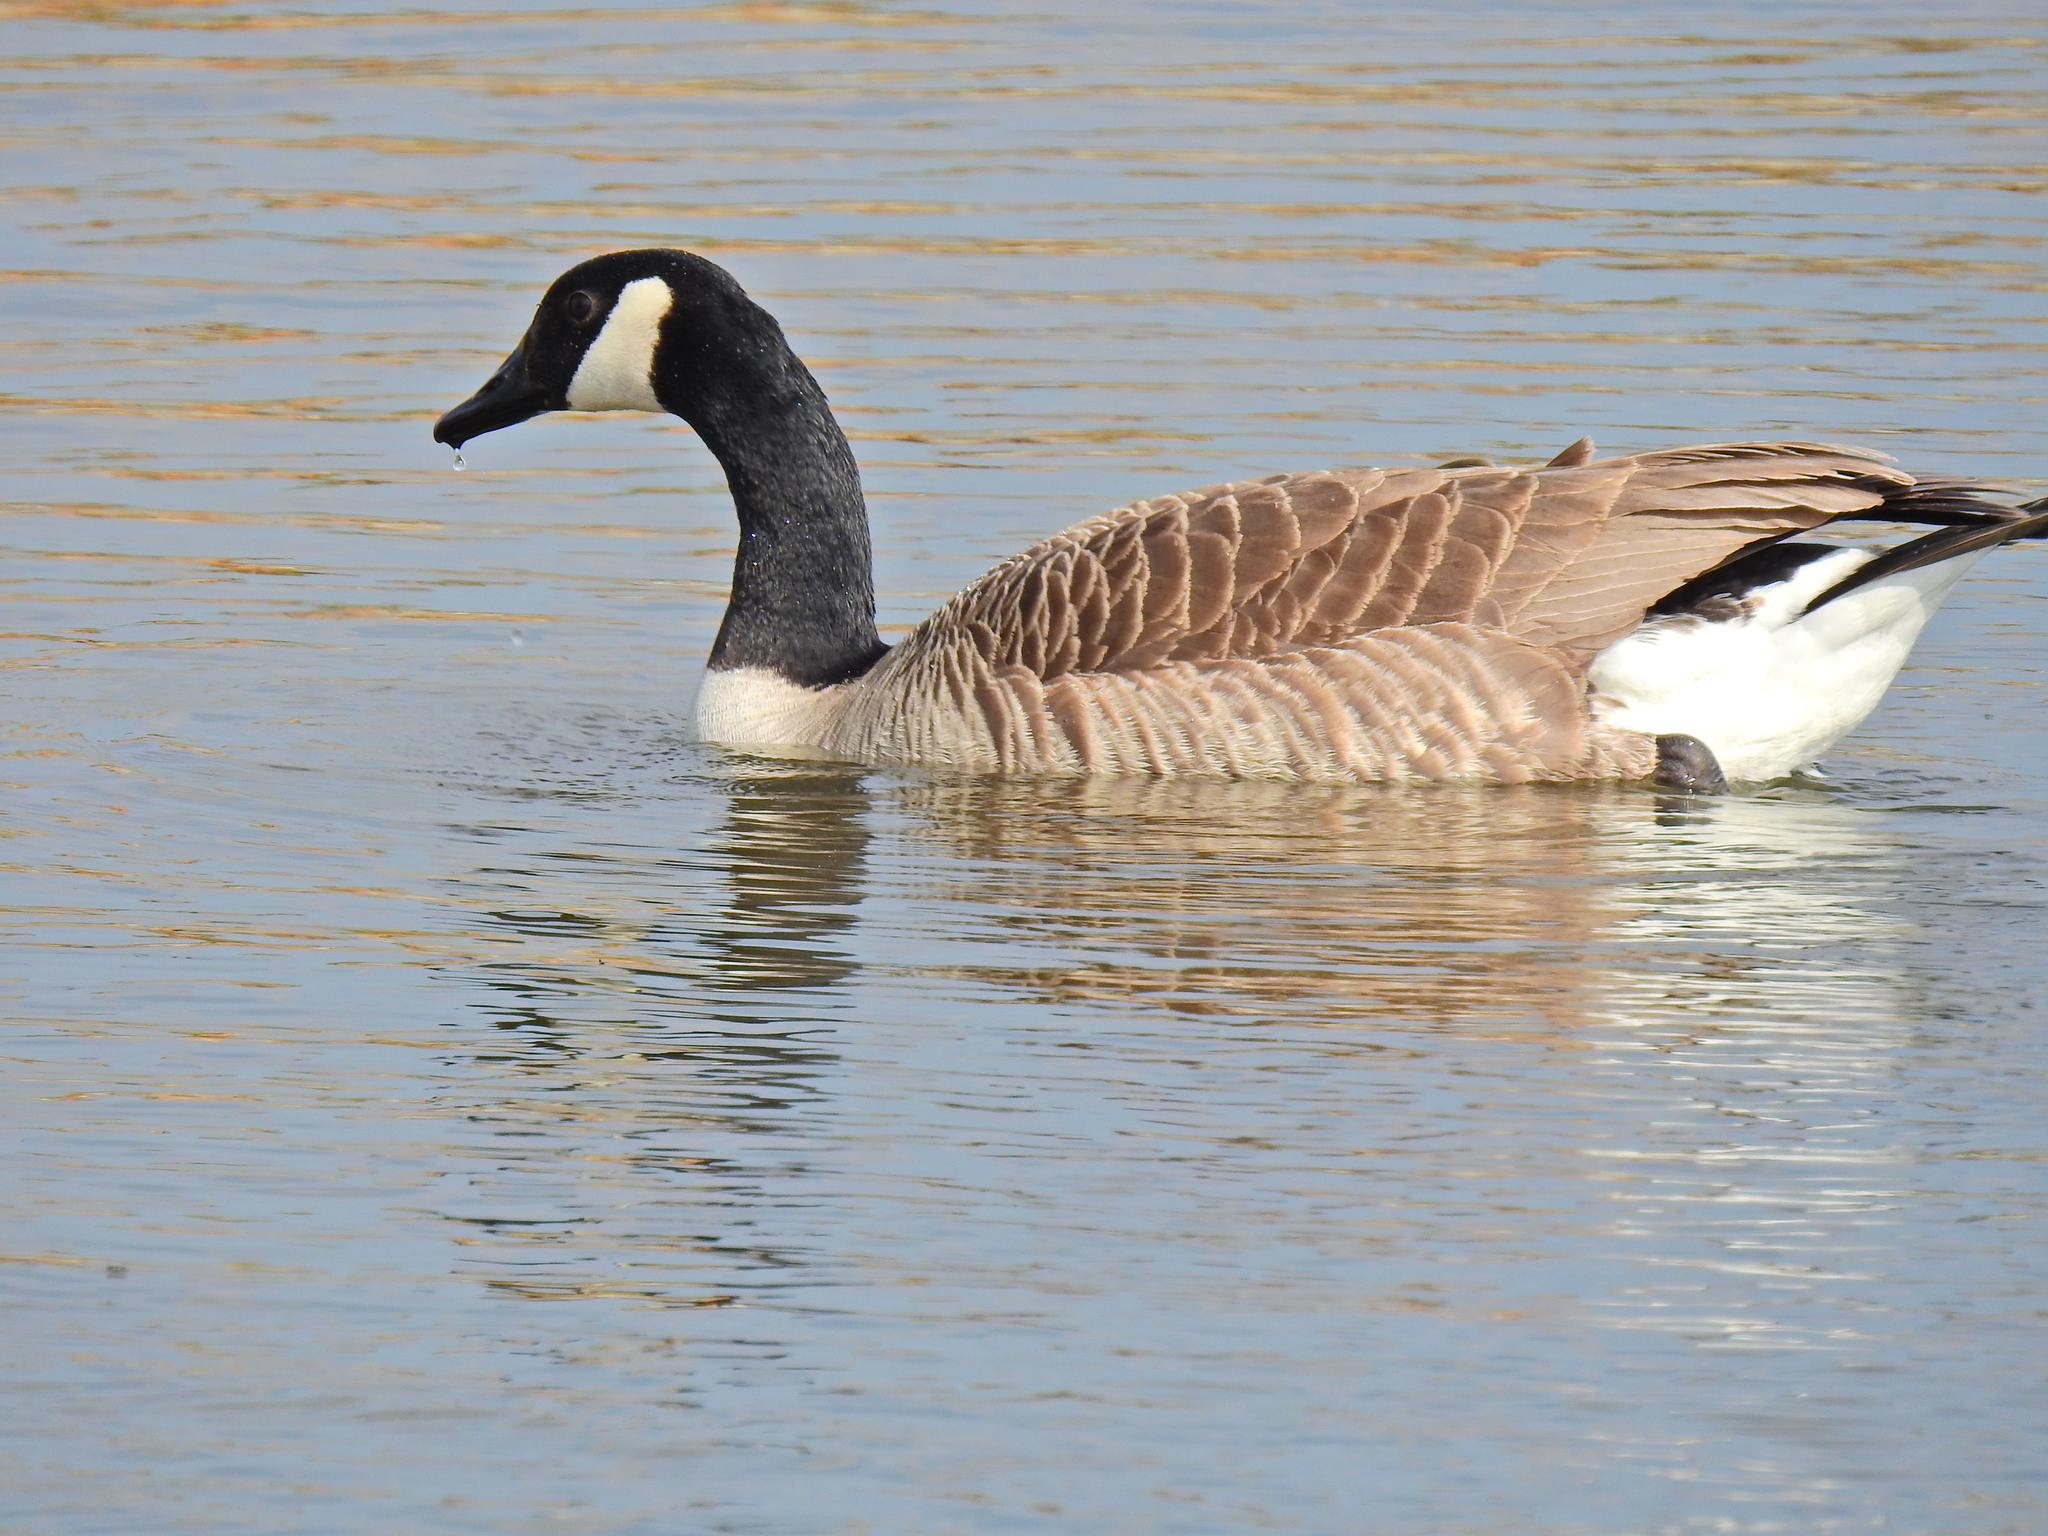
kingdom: Animalia
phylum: Chordata
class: Aves
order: Anseriformes
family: Anatidae
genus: Branta
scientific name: Branta canadensis
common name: Canada goose
